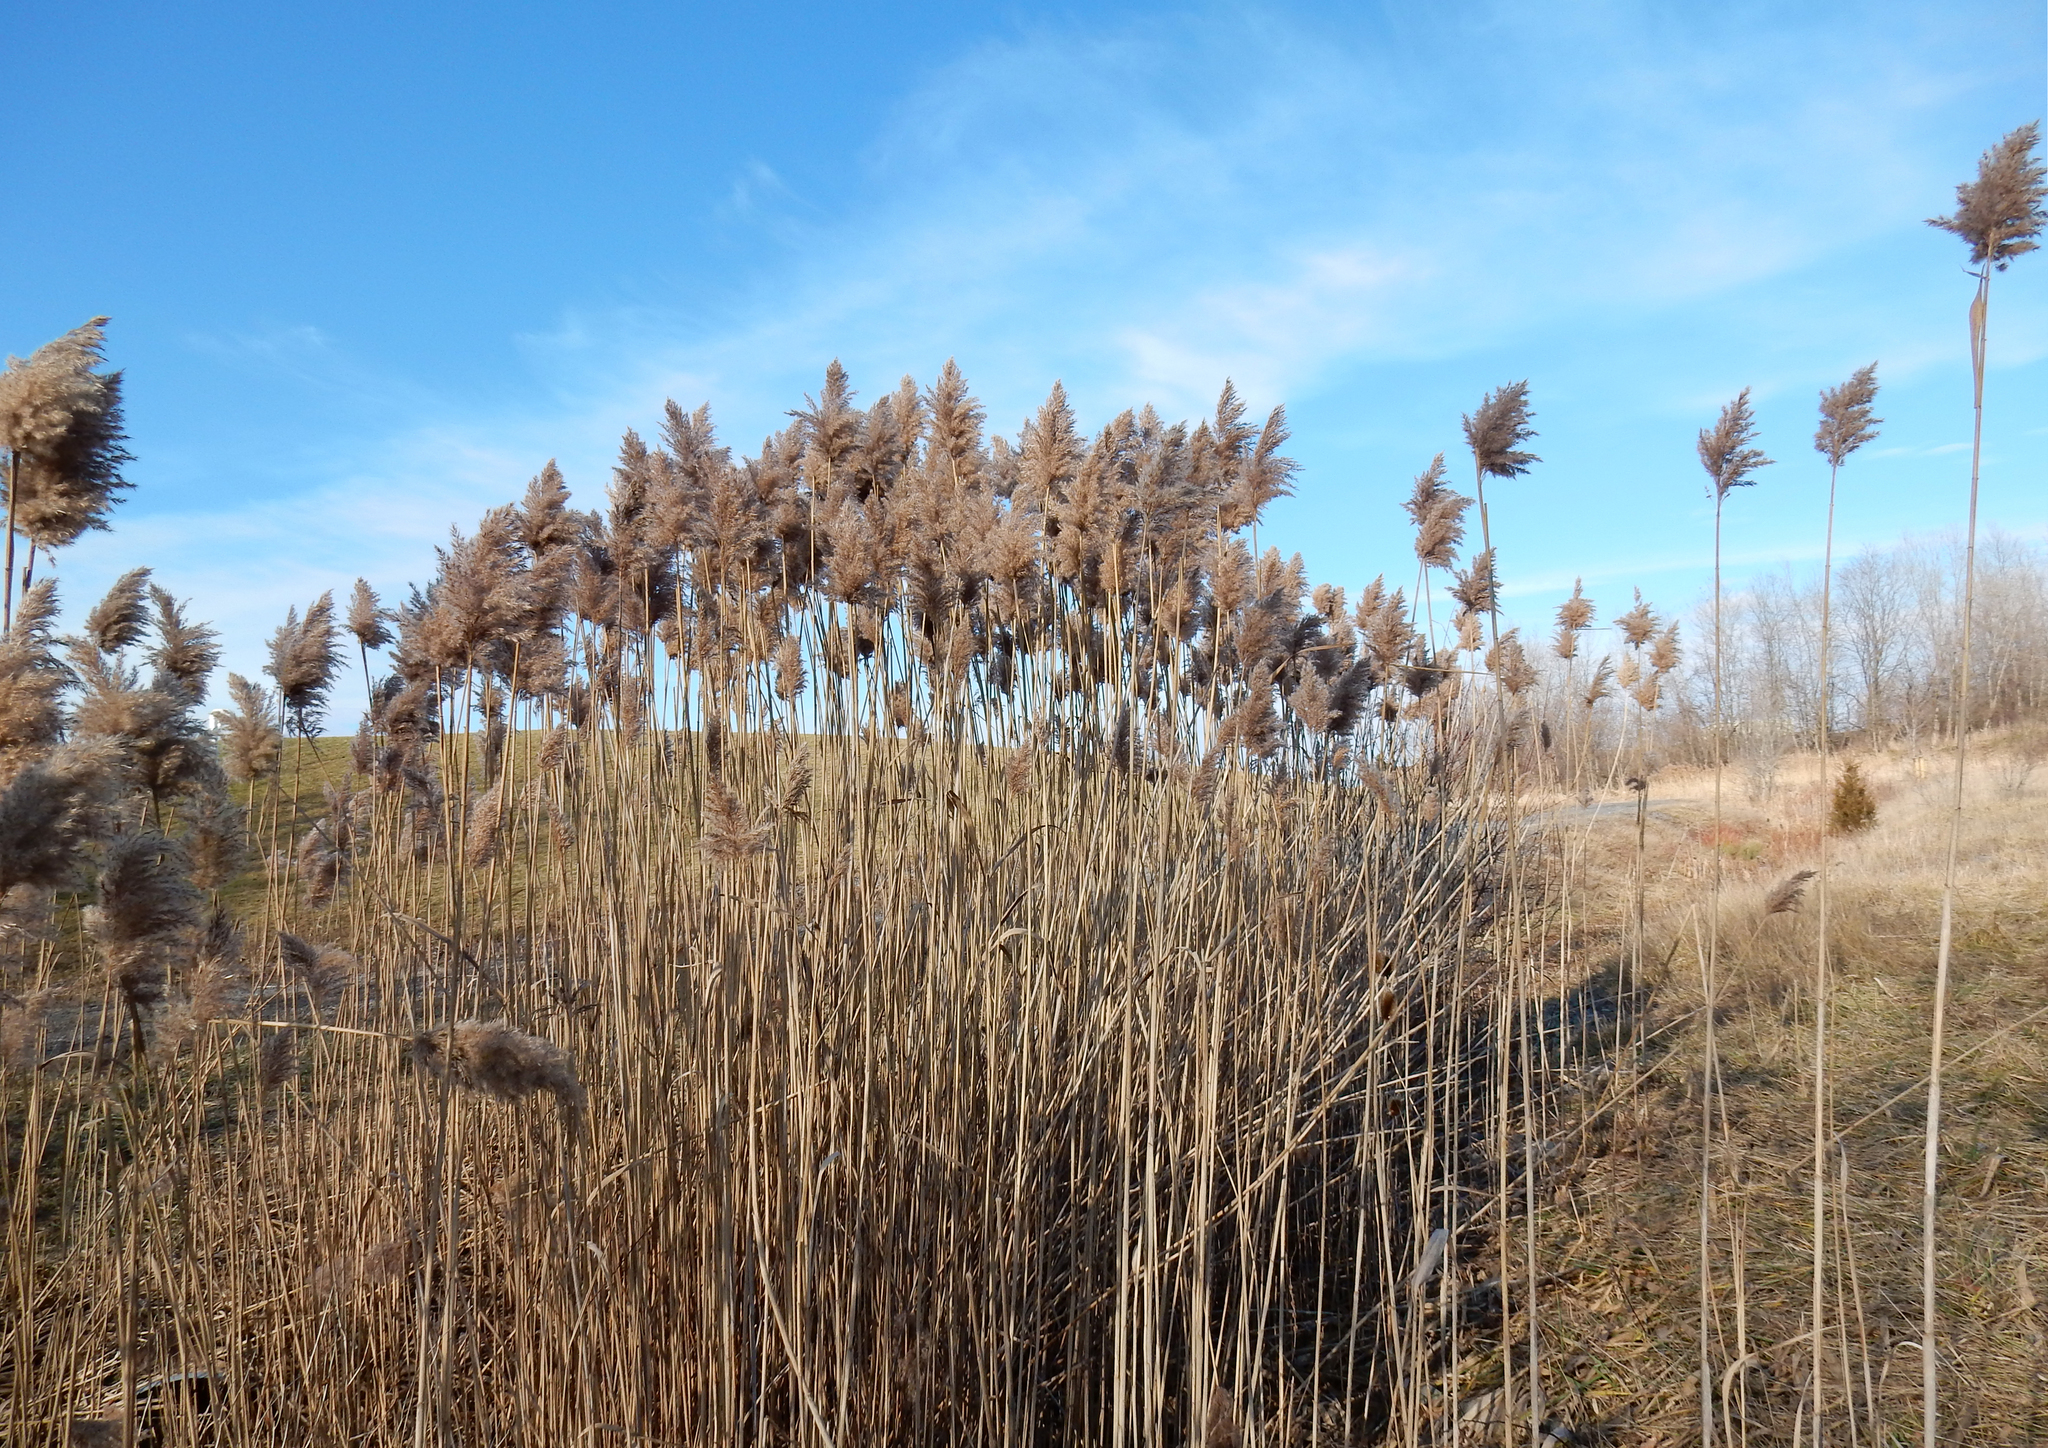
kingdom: Plantae
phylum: Tracheophyta
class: Liliopsida
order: Poales
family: Poaceae
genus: Phragmites
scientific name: Phragmites australis
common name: Common reed
